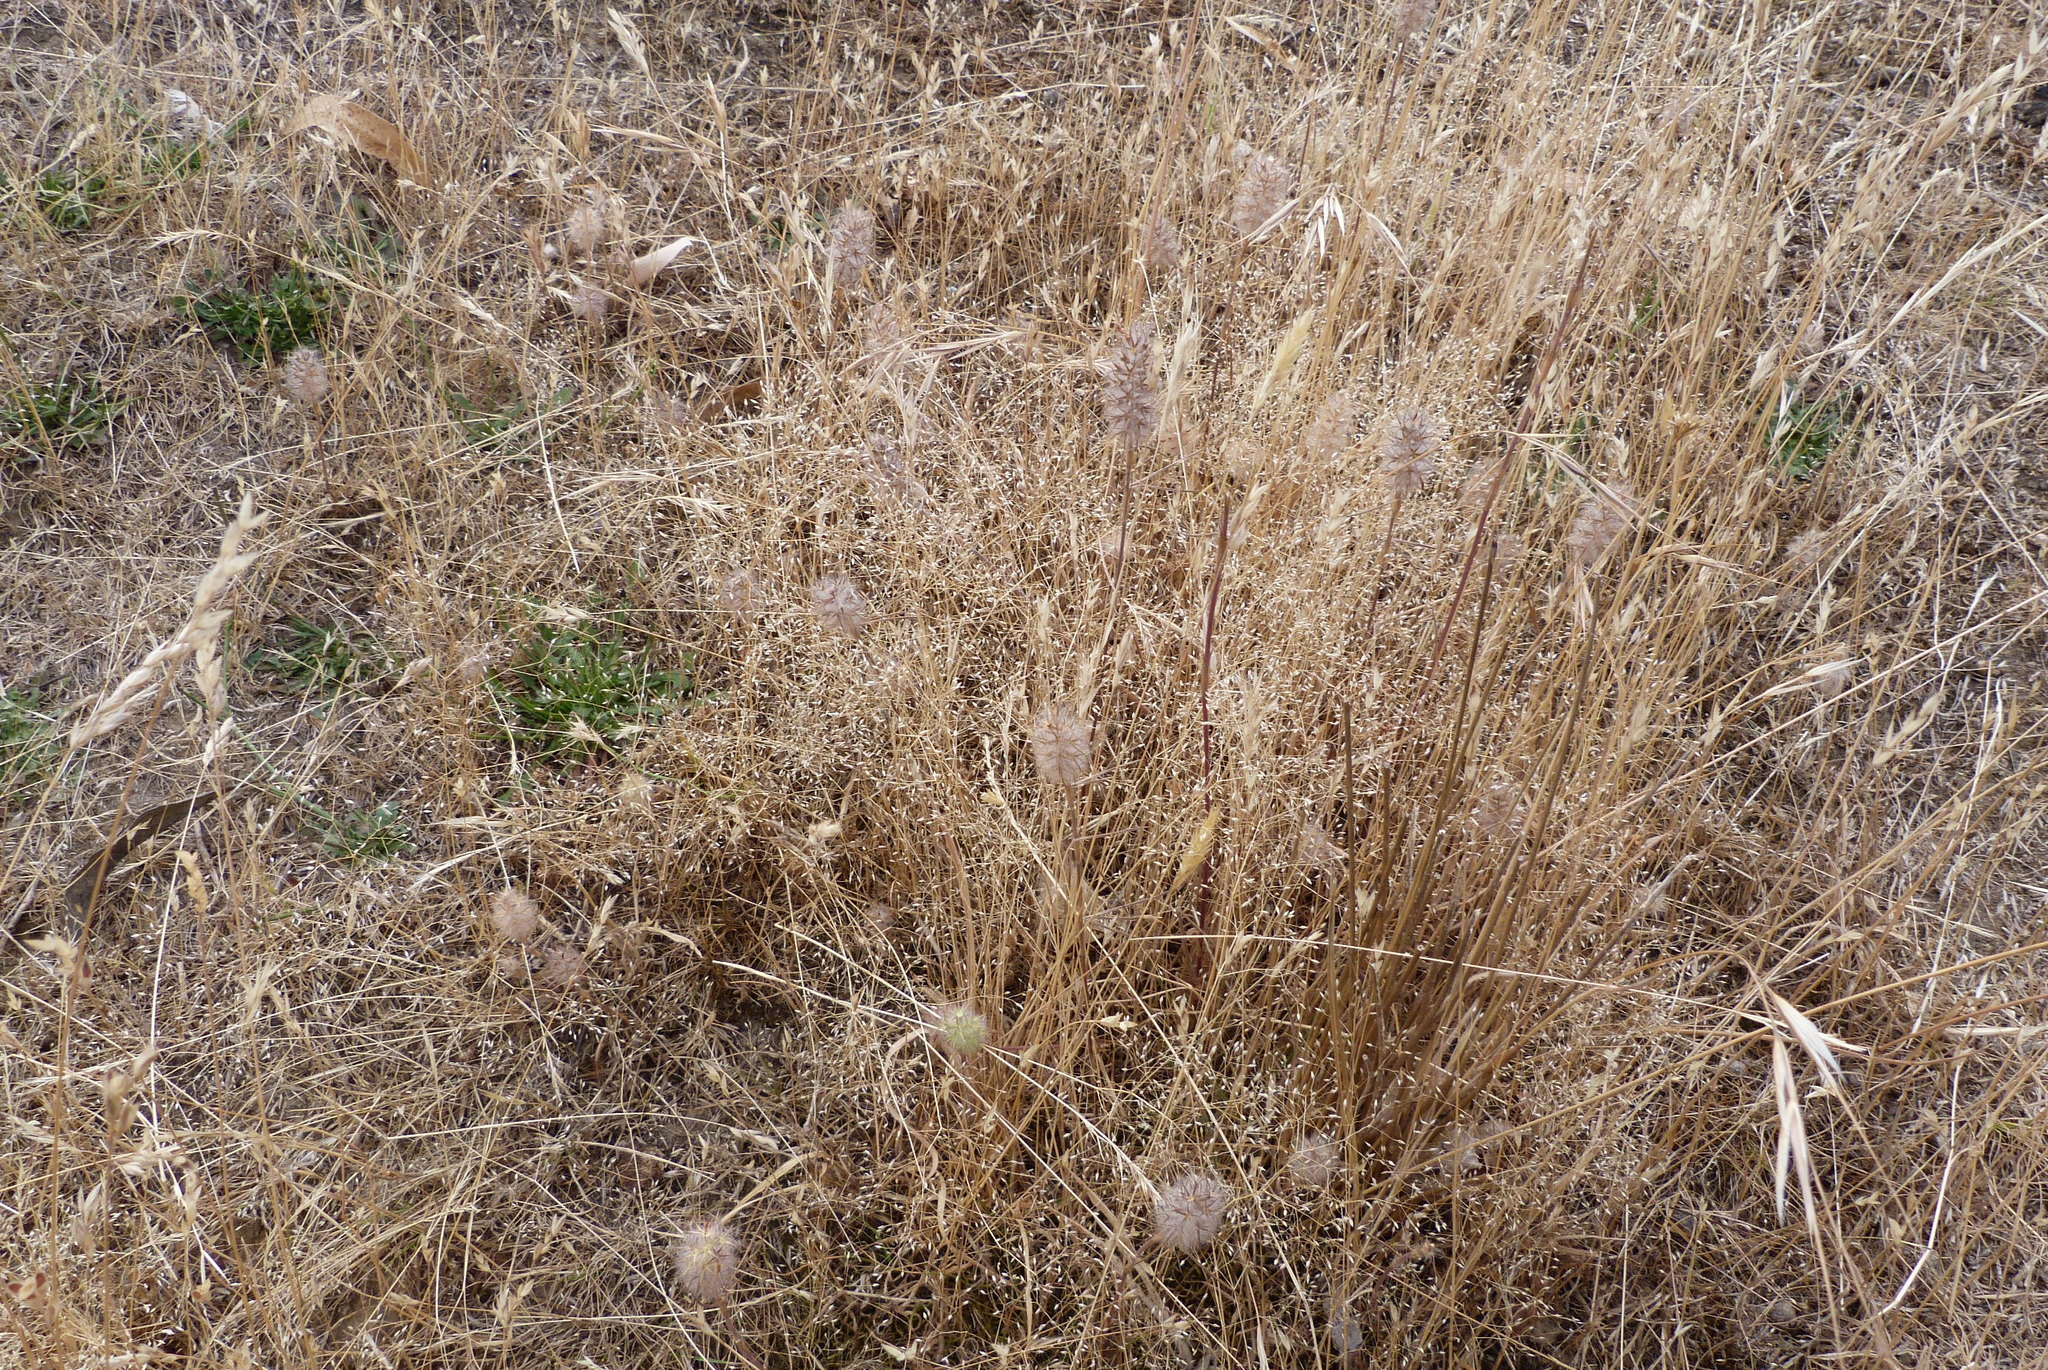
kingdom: Plantae
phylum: Tracheophyta
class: Liliopsida
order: Poales
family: Poaceae
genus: Aira
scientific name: Aira caryophyllea
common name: Silver hairgrass
